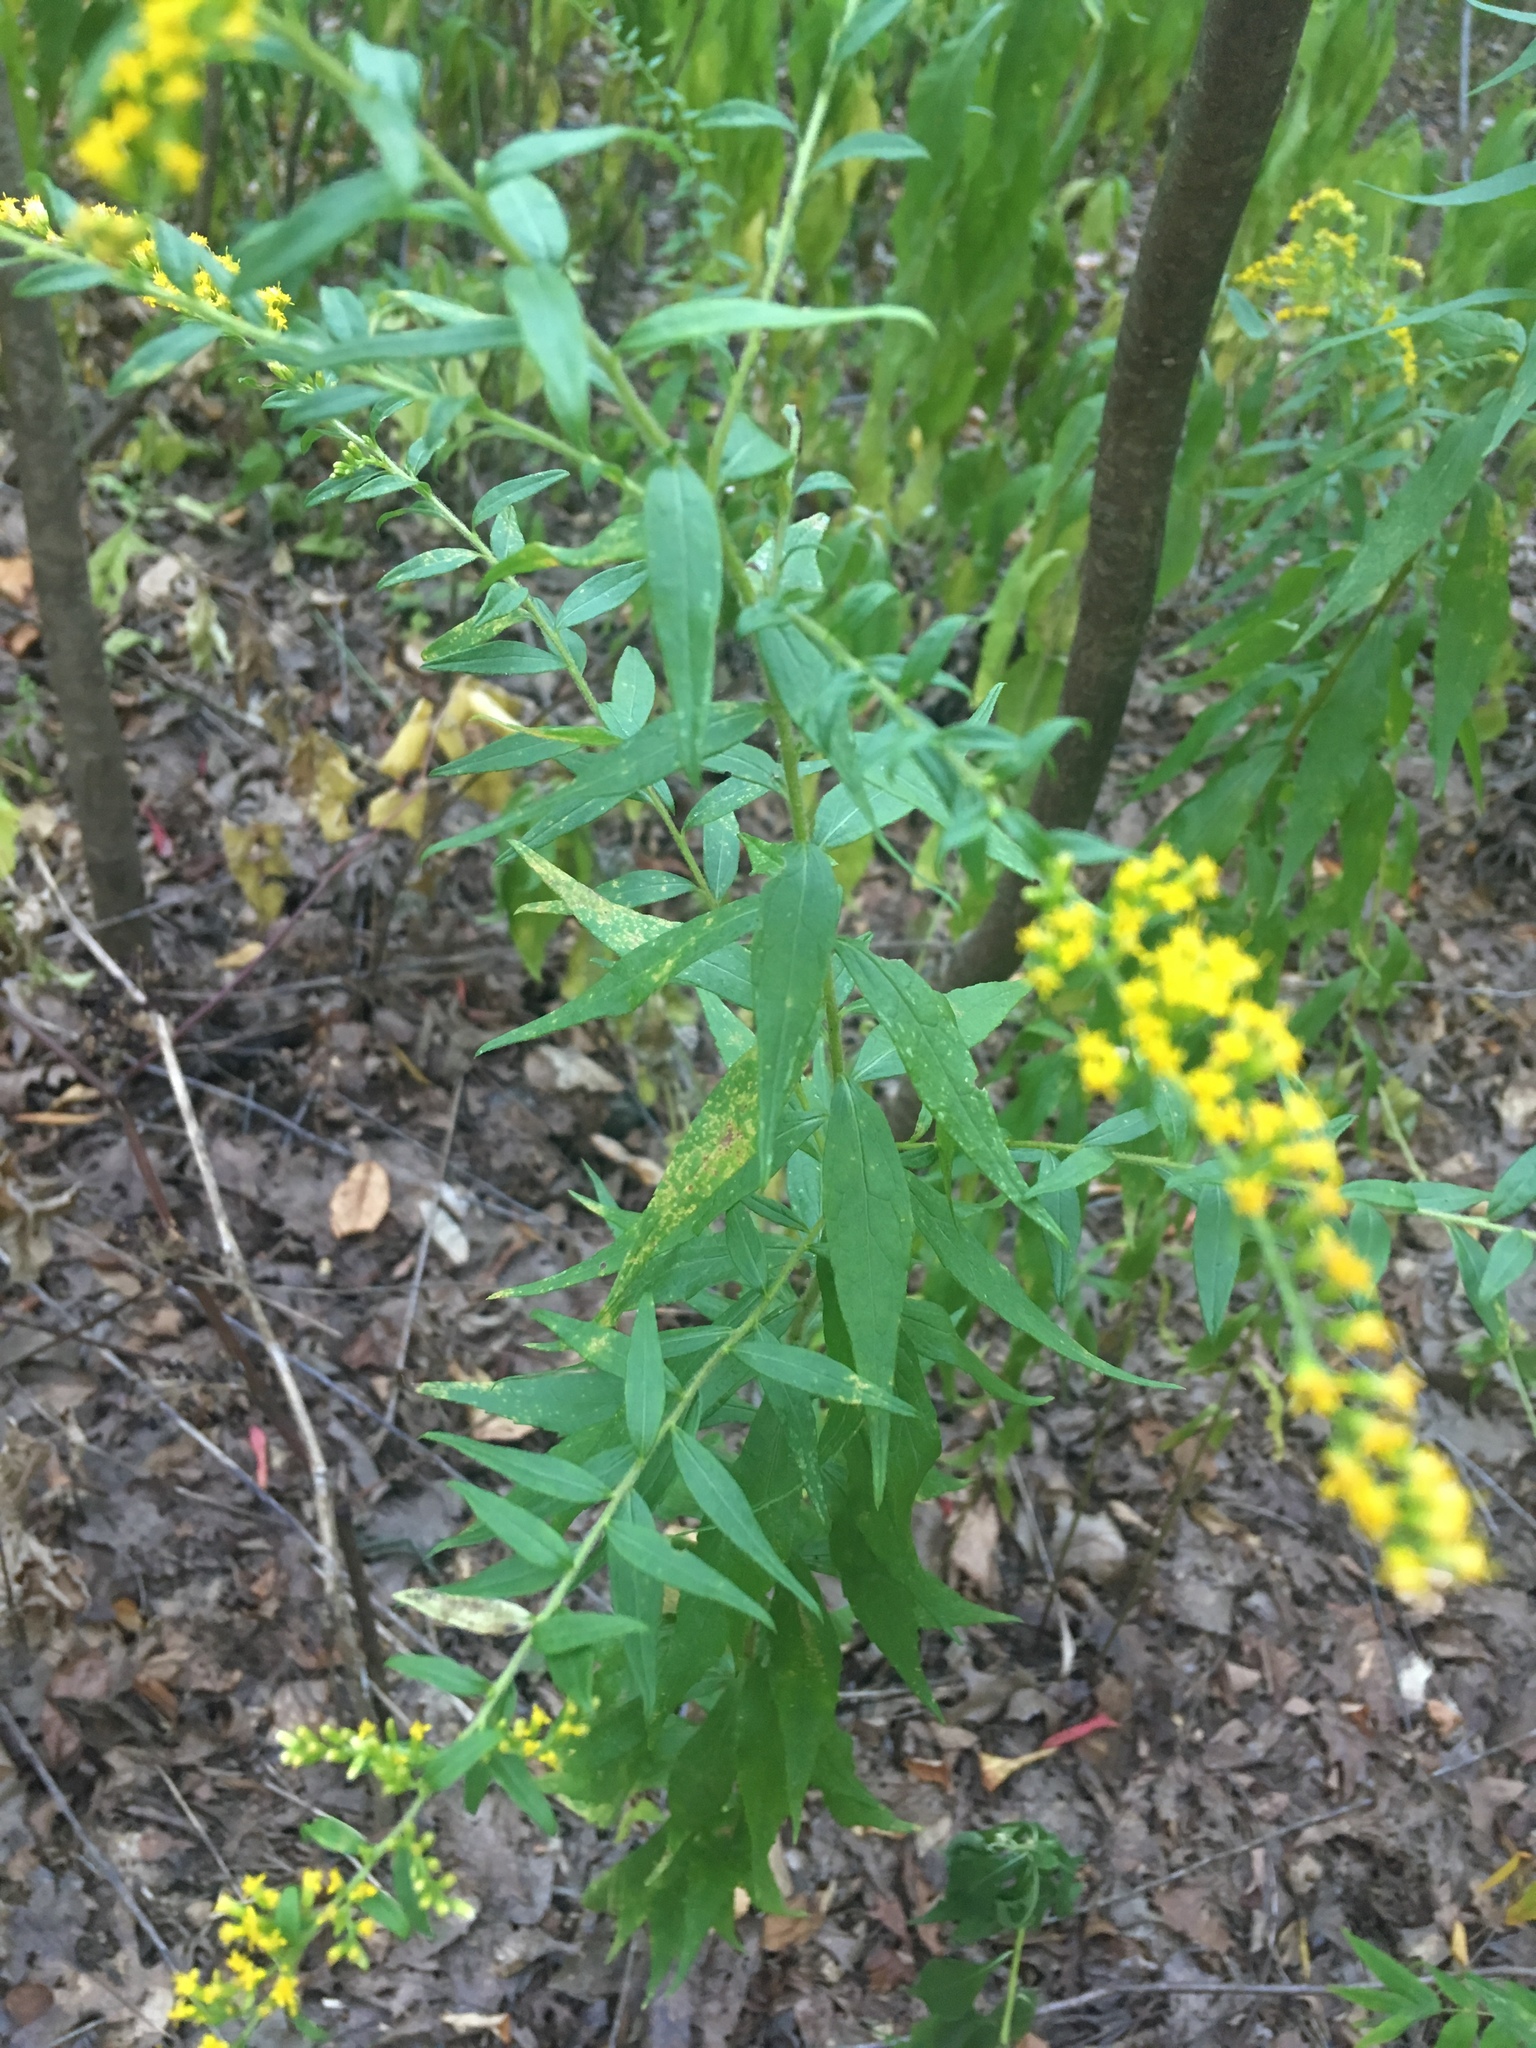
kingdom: Plantae
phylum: Tracheophyta
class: Magnoliopsida
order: Asterales
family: Asteraceae
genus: Solidago
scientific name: Solidago rugosa
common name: Rough-stemmed goldenrod
